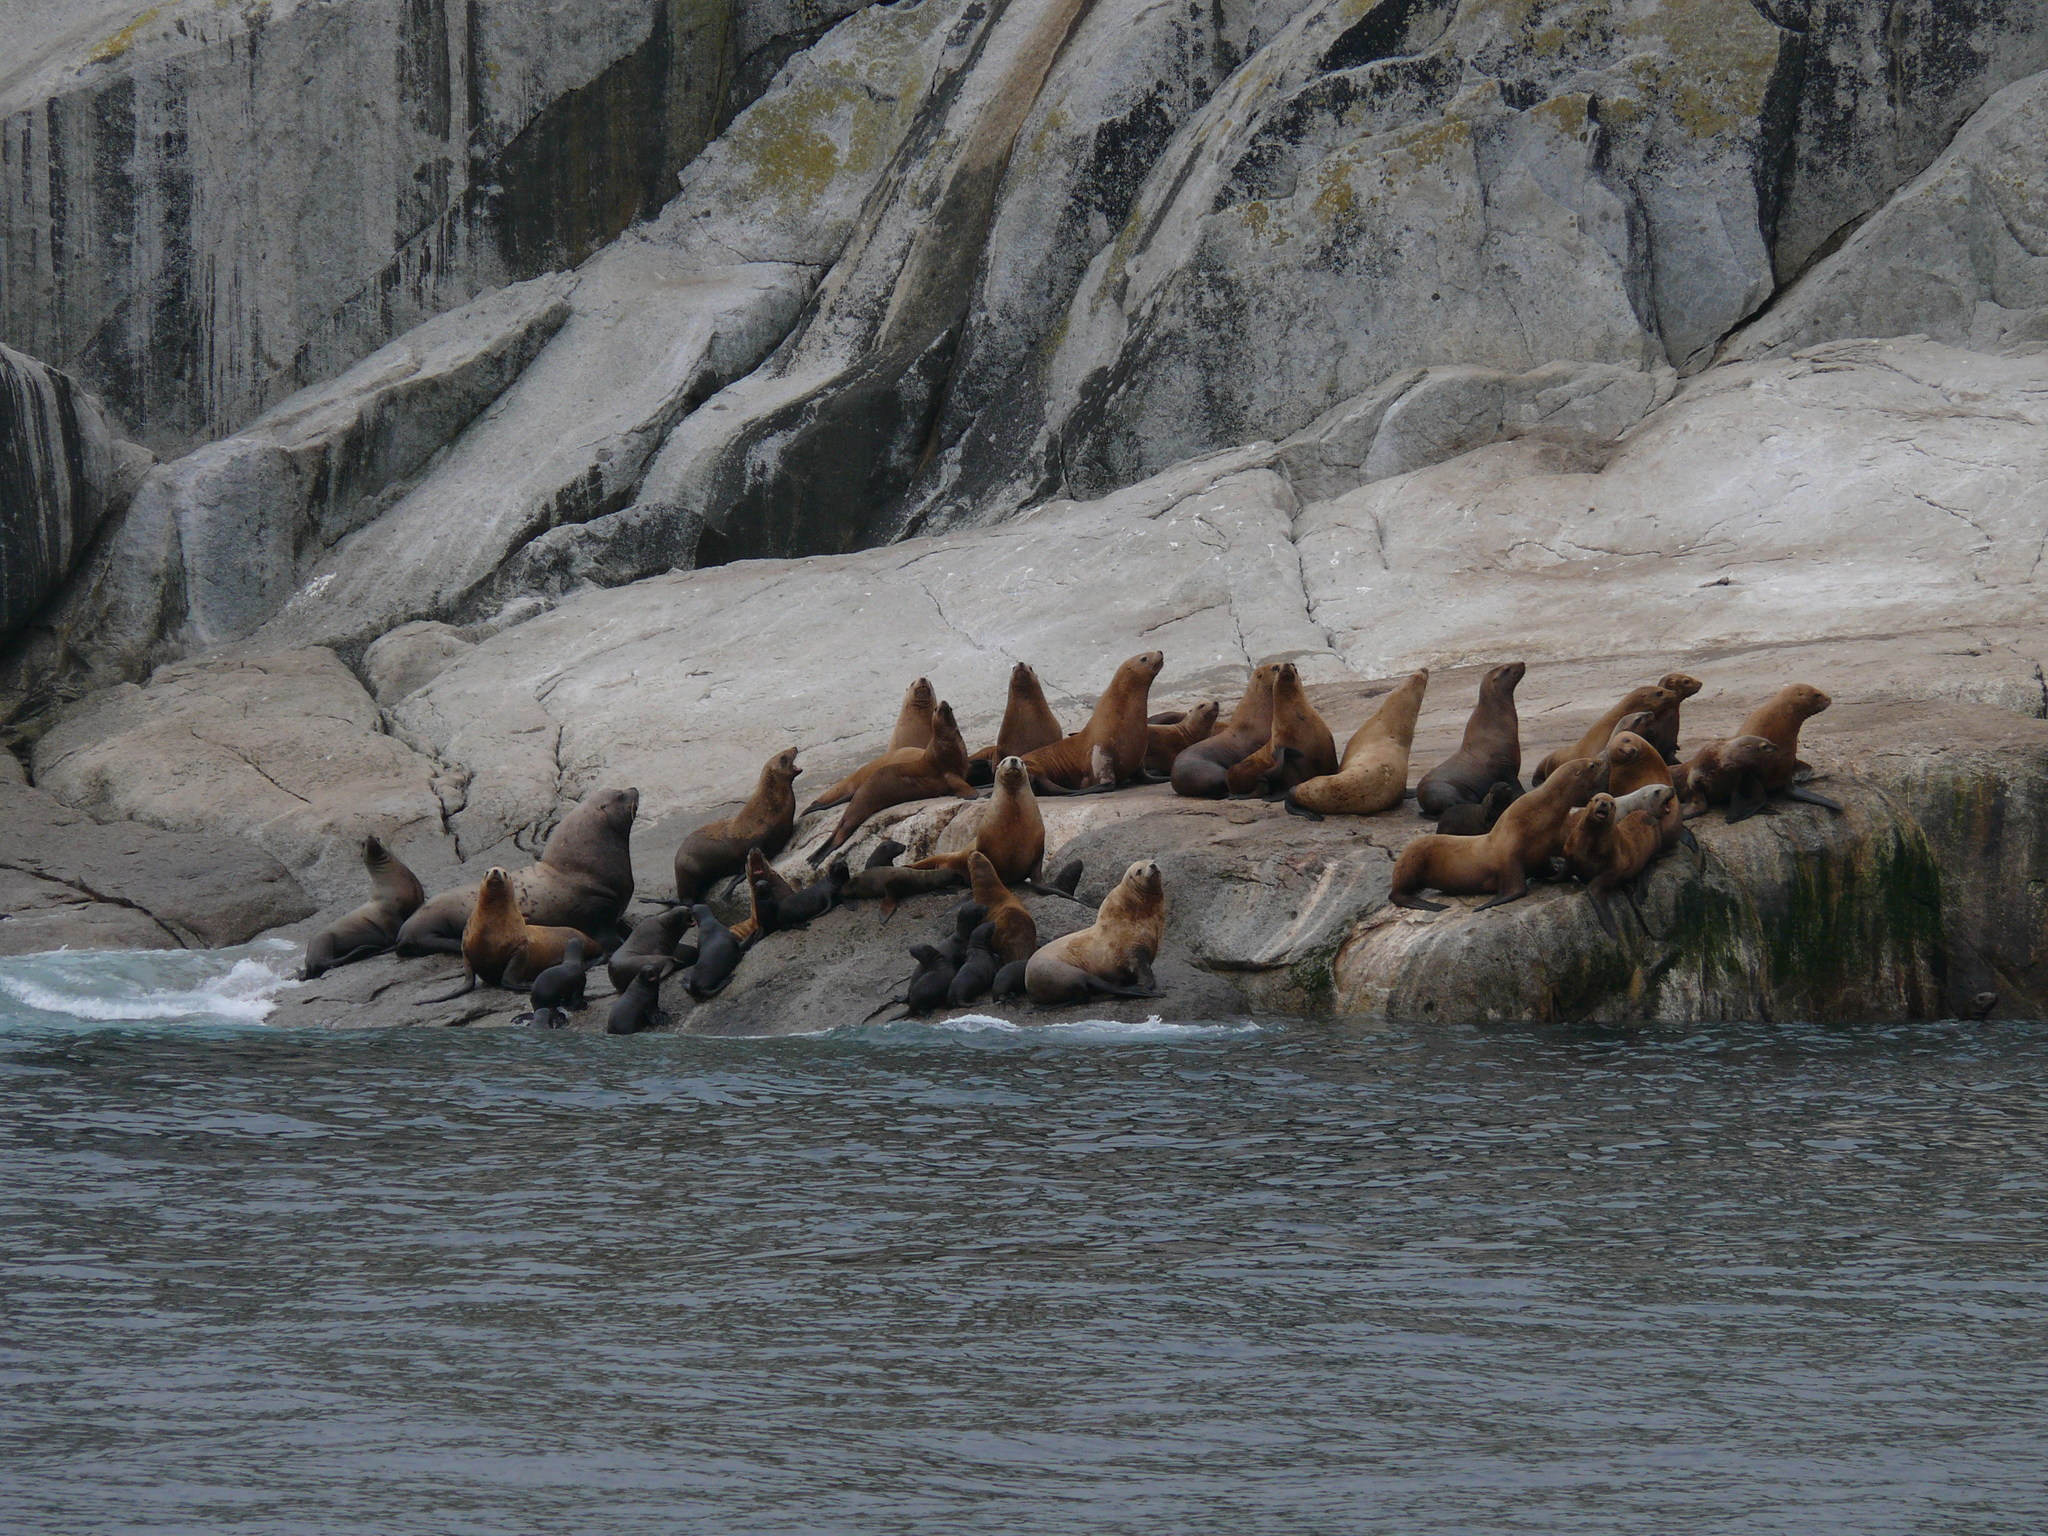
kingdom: Animalia
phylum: Chordata
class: Mammalia
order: Carnivora
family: Otariidae
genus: Eumetopias
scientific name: Eumetopias jubatus
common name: Steller sea lion
